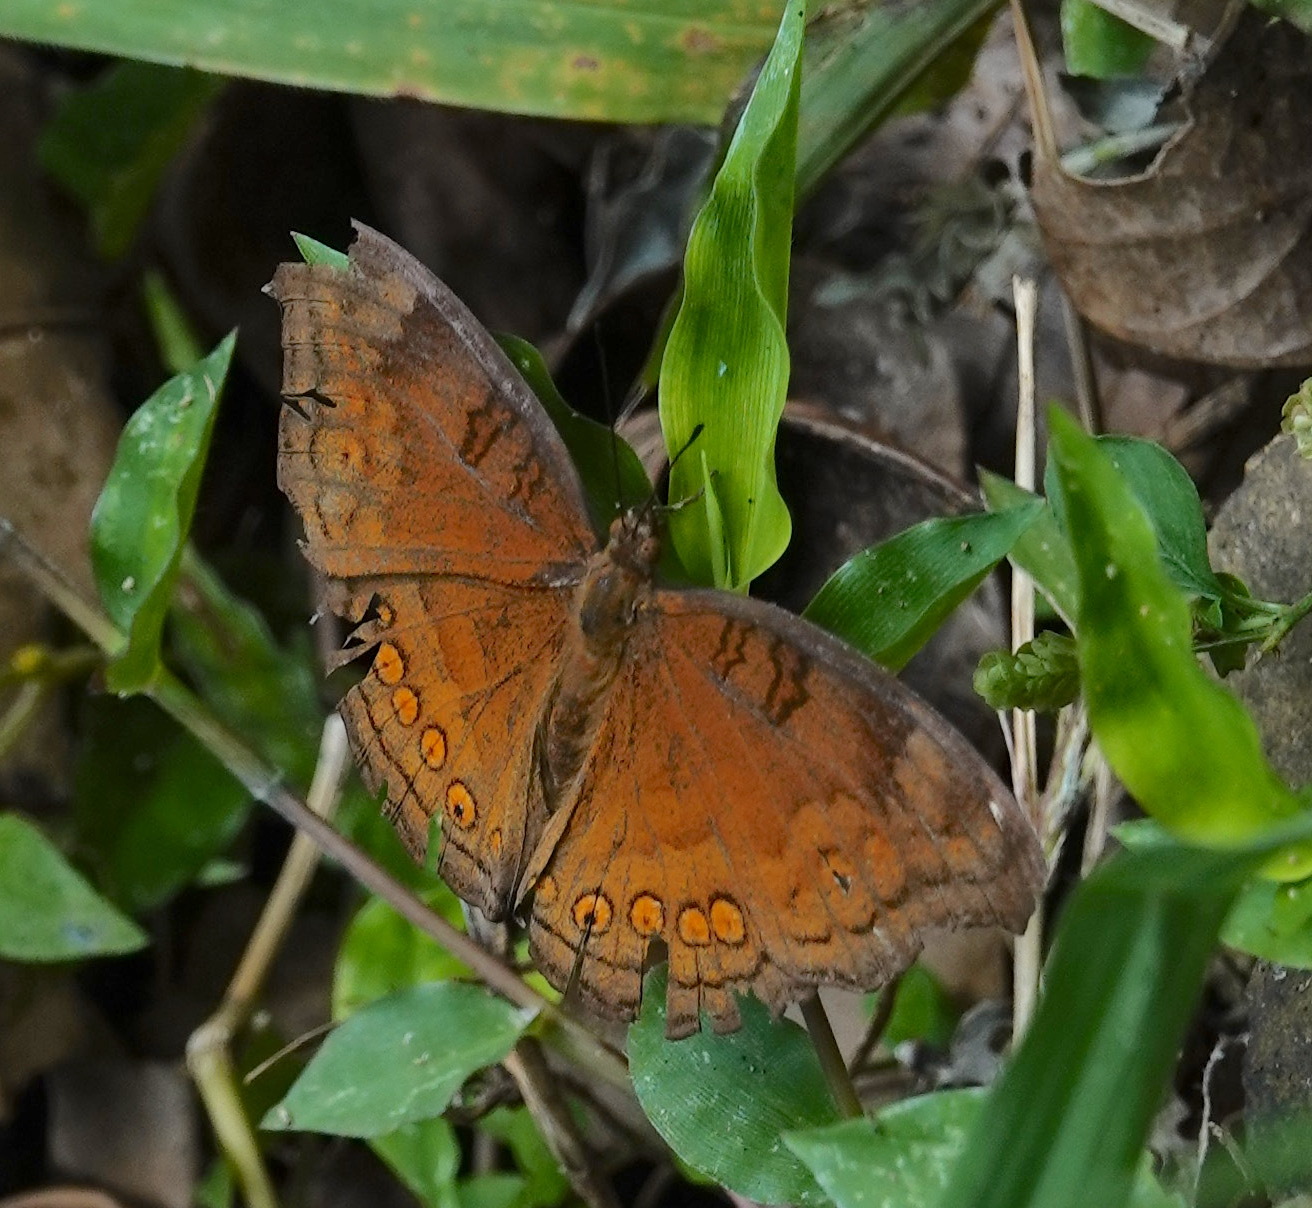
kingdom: Animalia
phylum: Arthropoda
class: Insecta
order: Lepidoptera
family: Nymphalidae
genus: Junonia
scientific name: Junonia hedonia
